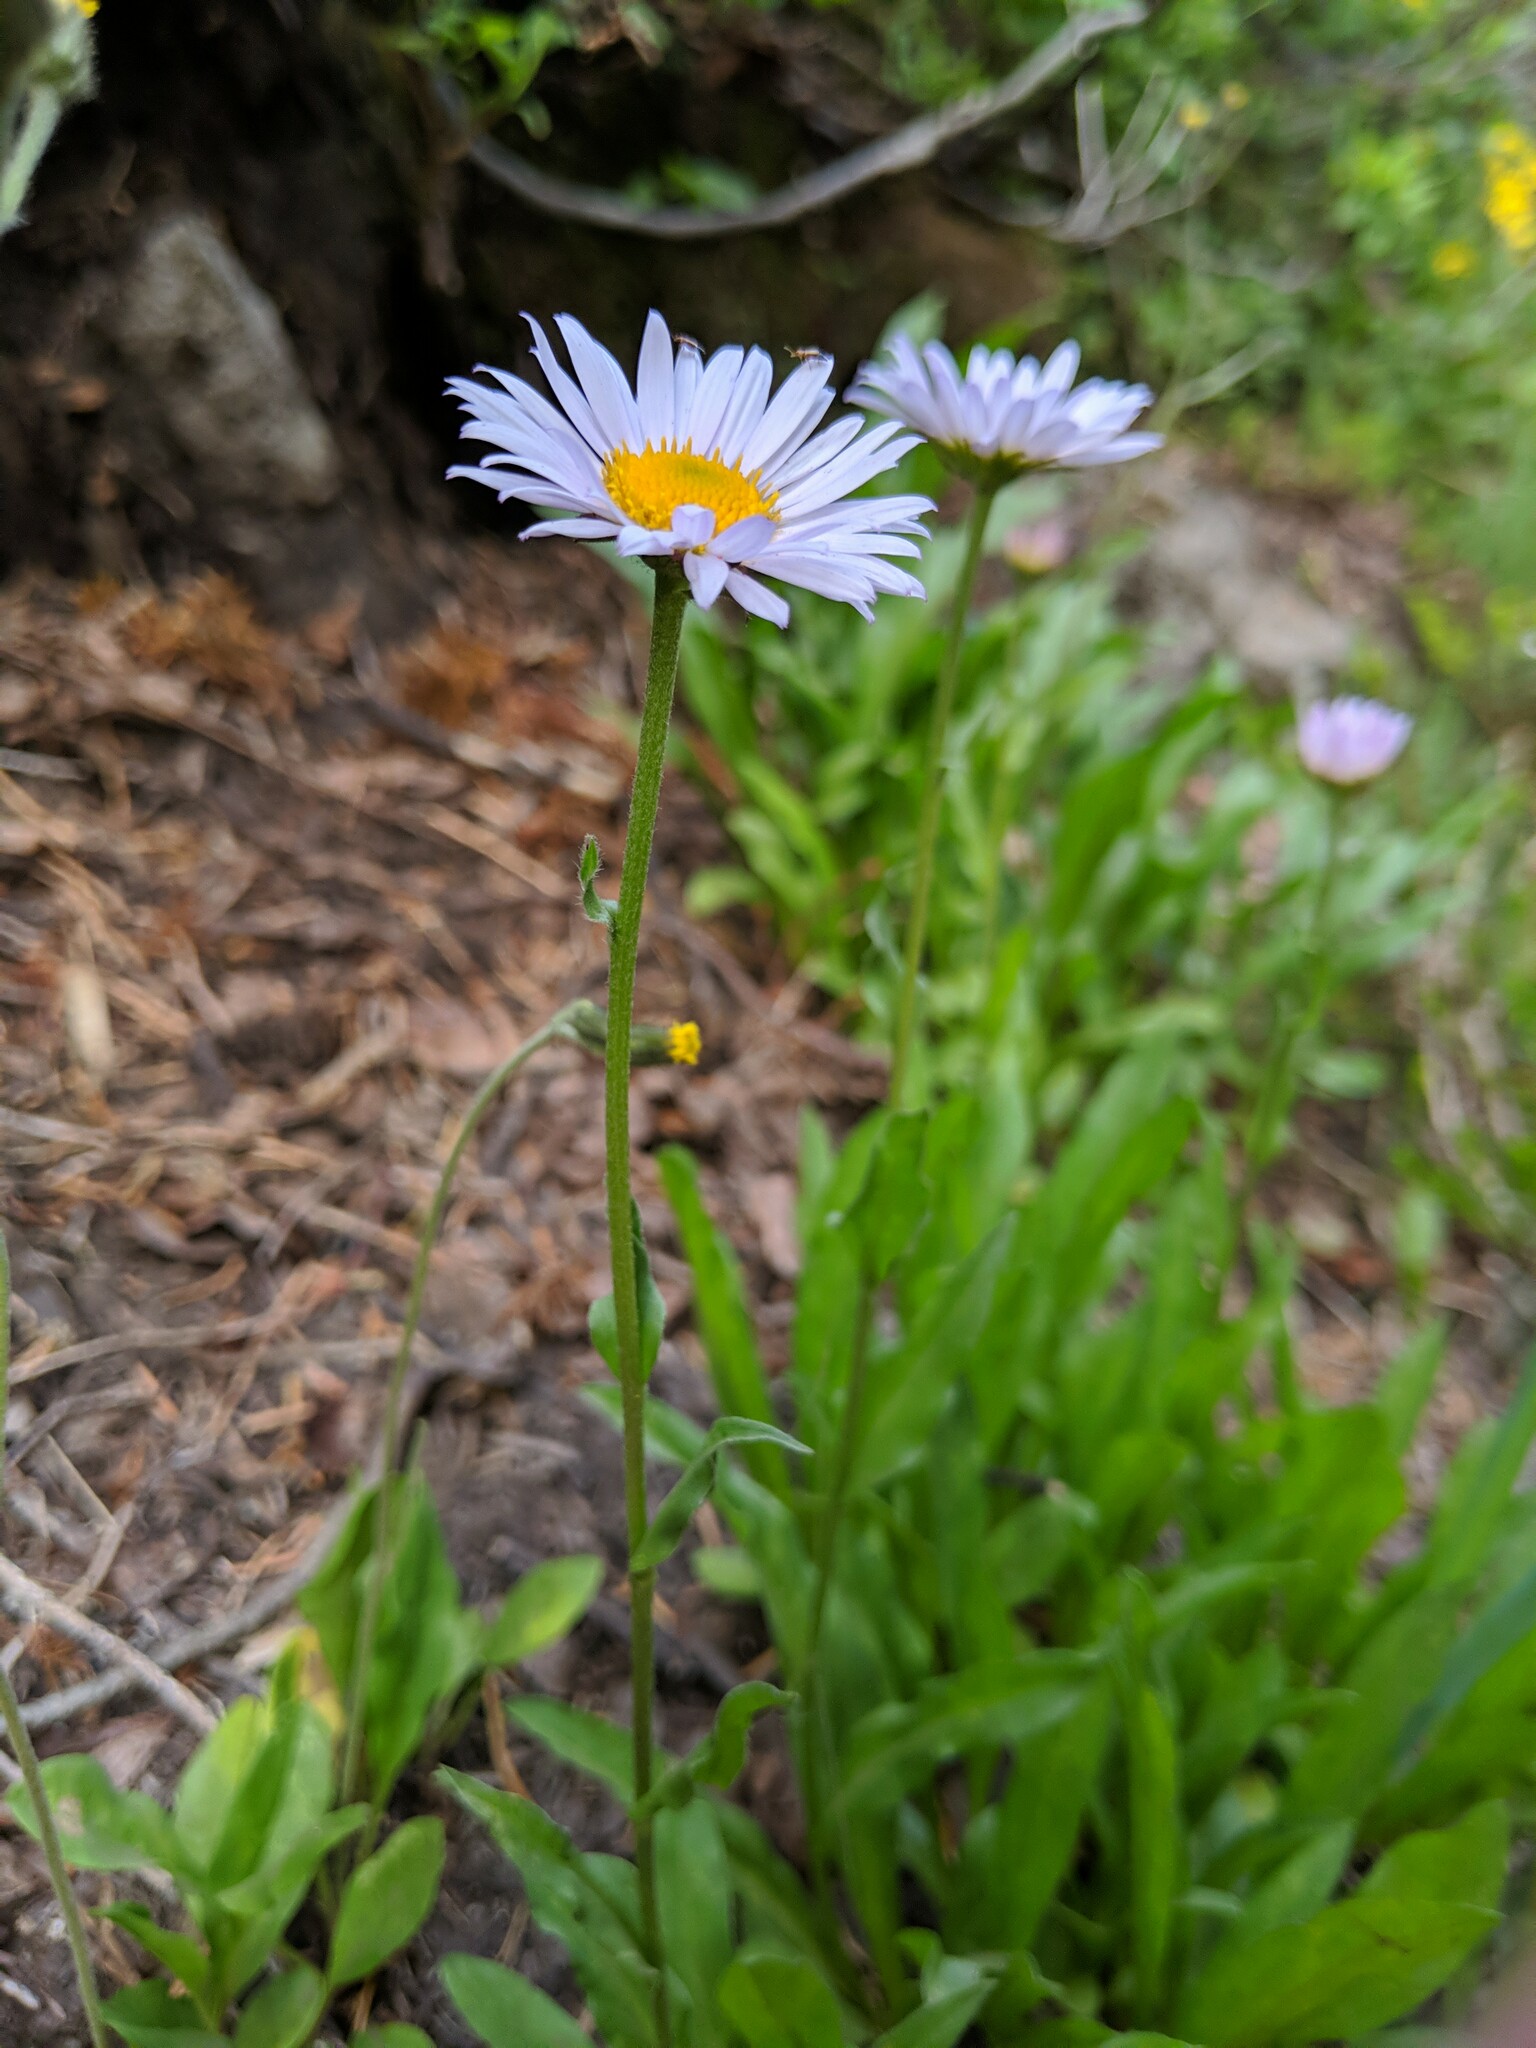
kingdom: Plantae
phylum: Tracheophyta
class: Magnoliopsida
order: Asterales
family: Asteraceae
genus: Erigeron
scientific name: Erigeron glacialis
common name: Subalpine fleabane
